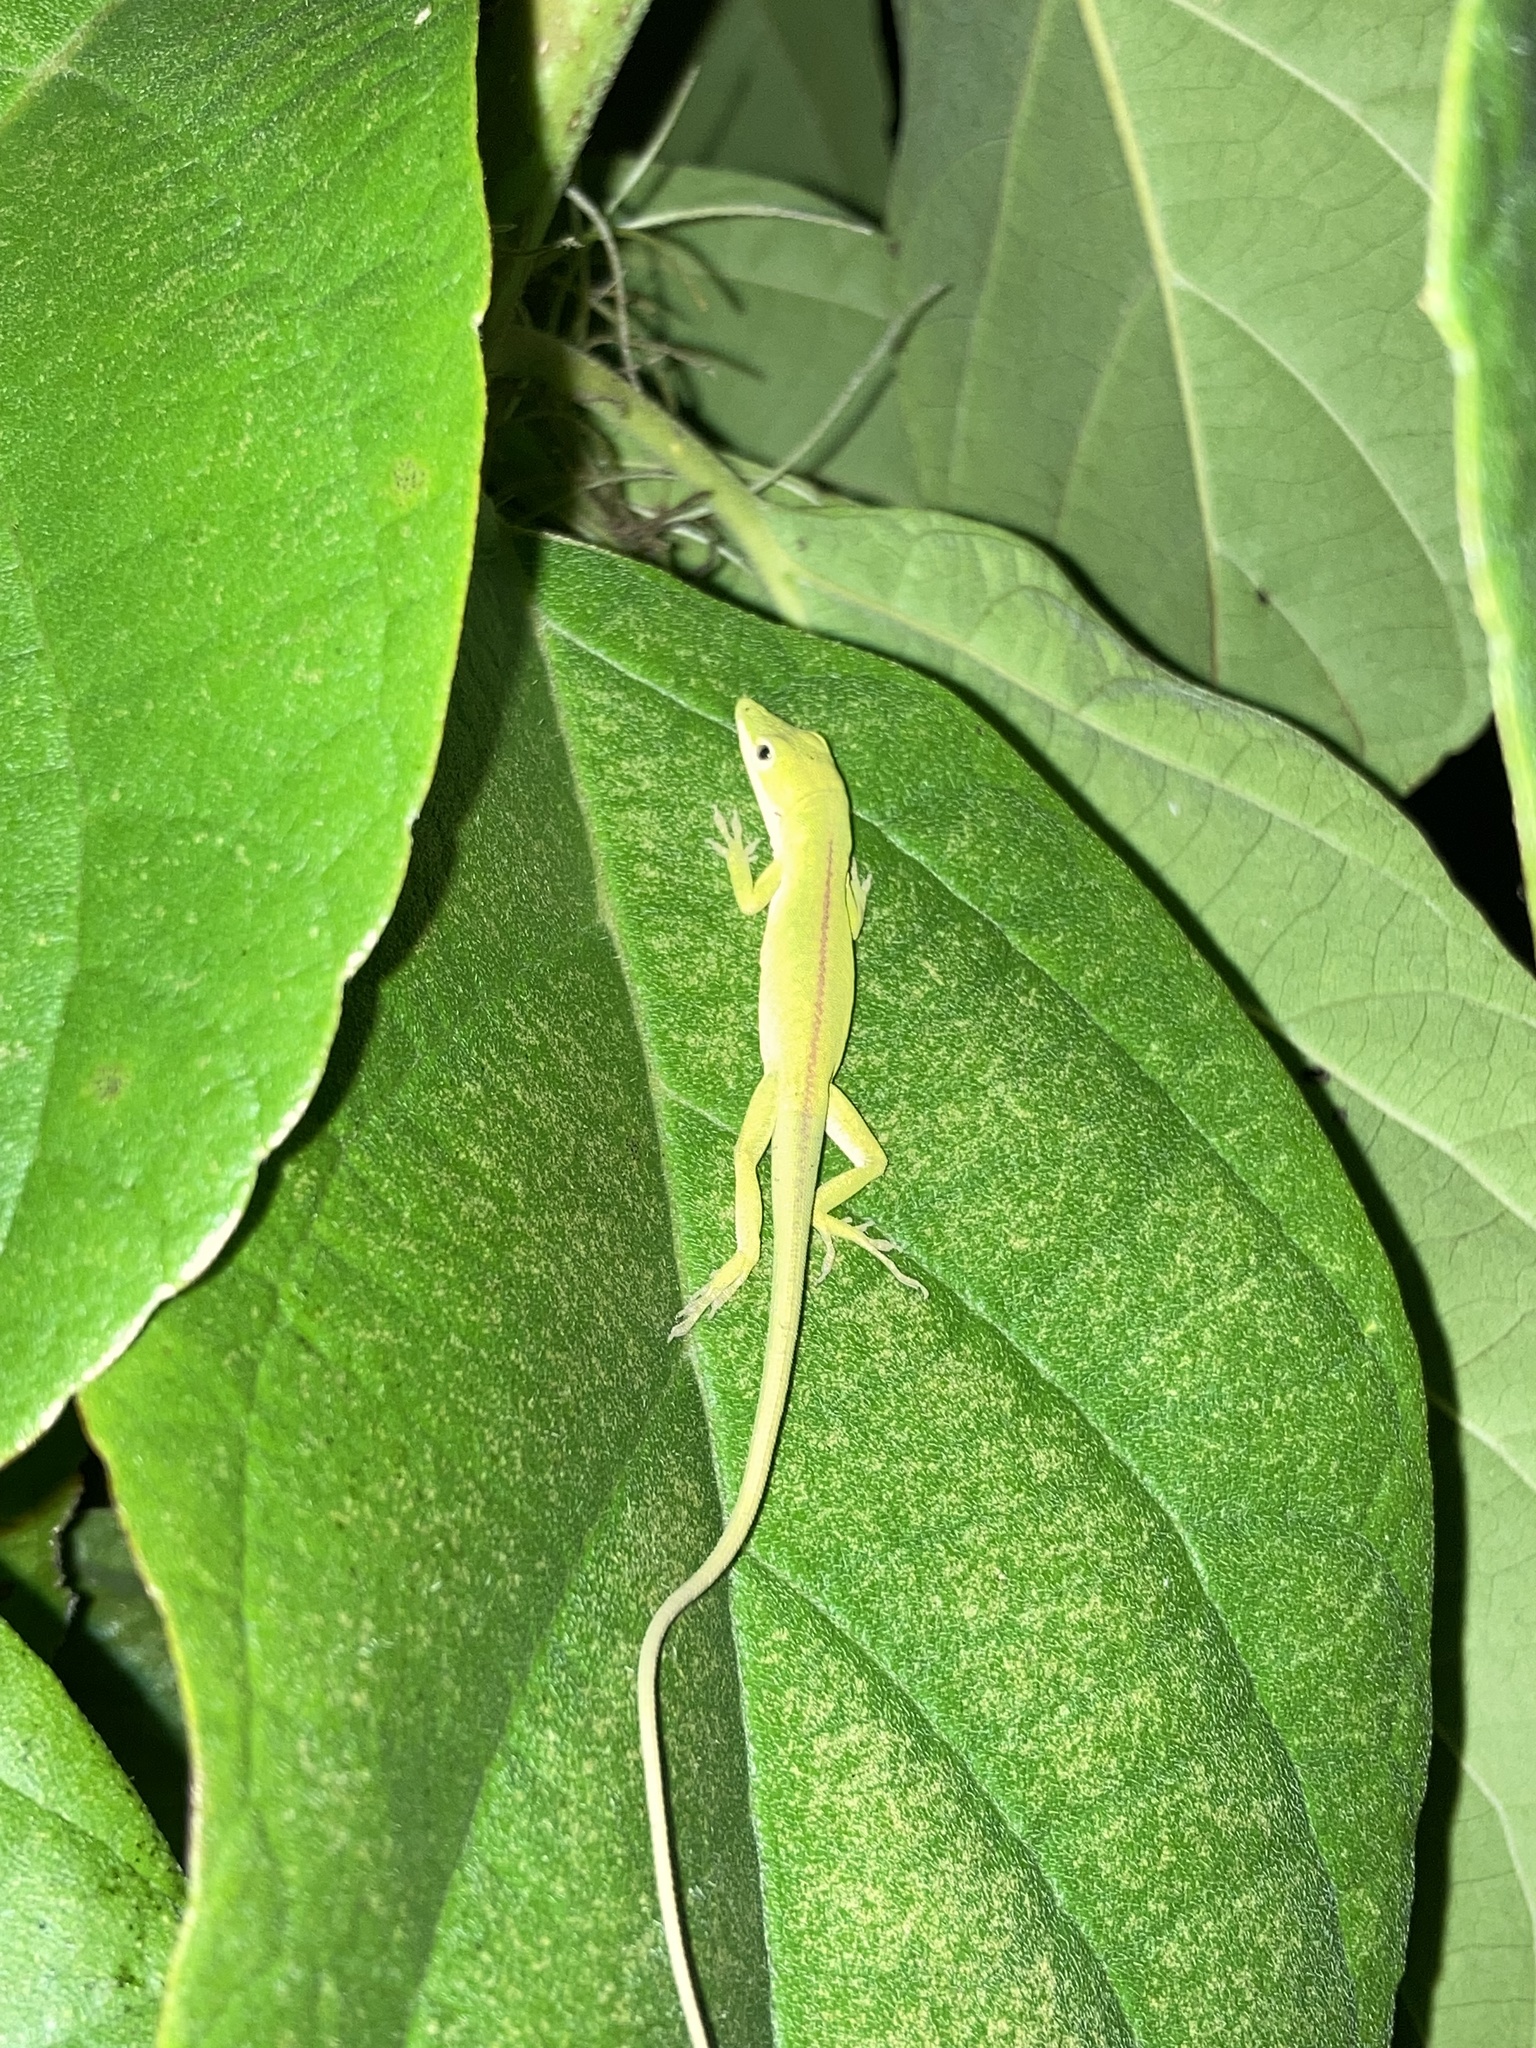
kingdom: Animalia
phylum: Chordata
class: Squamata
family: Dactyloidae
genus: Anolis
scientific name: Anolis carolinensis
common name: Green anole
